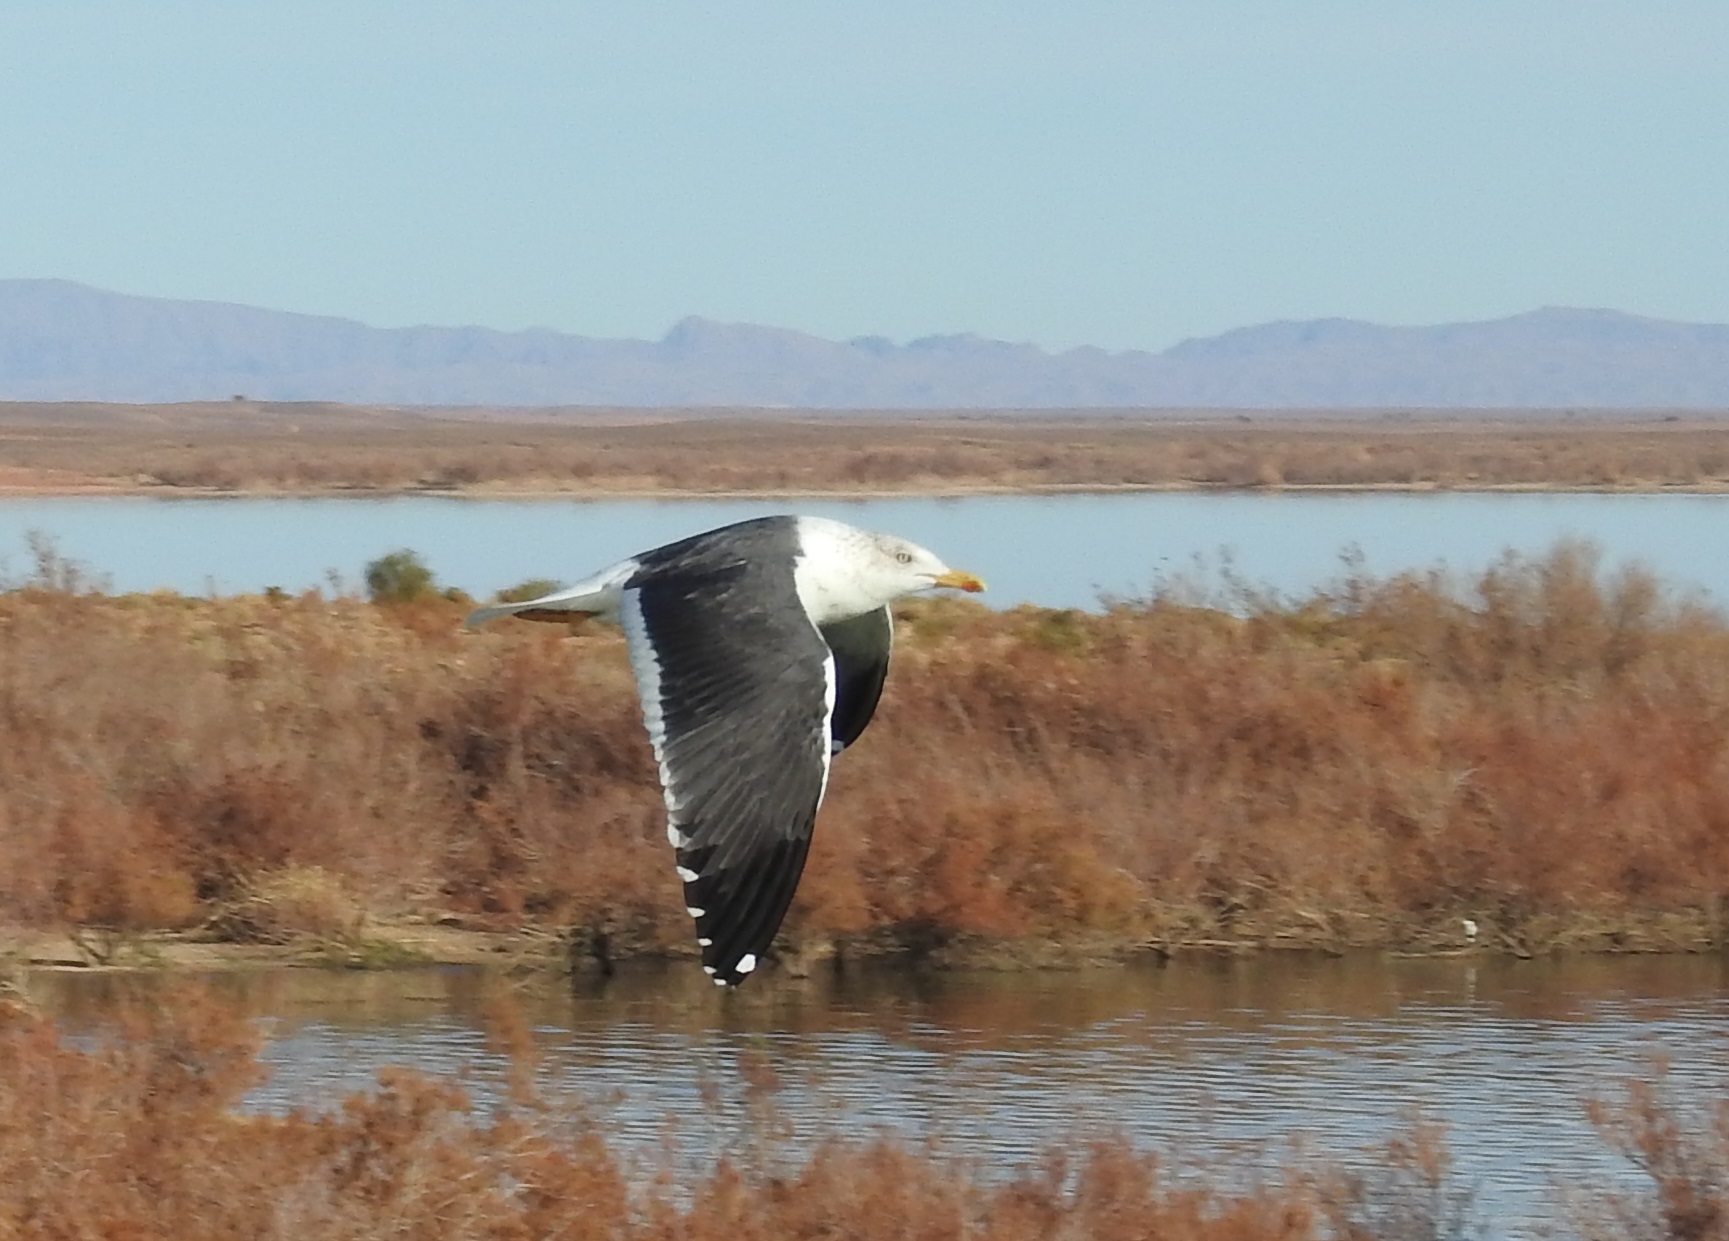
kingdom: Animalia
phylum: Chordata
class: Aves
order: Charadriiformes
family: Laridae
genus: Larus
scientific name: Larus fuscus
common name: Lesser black-backed gull
